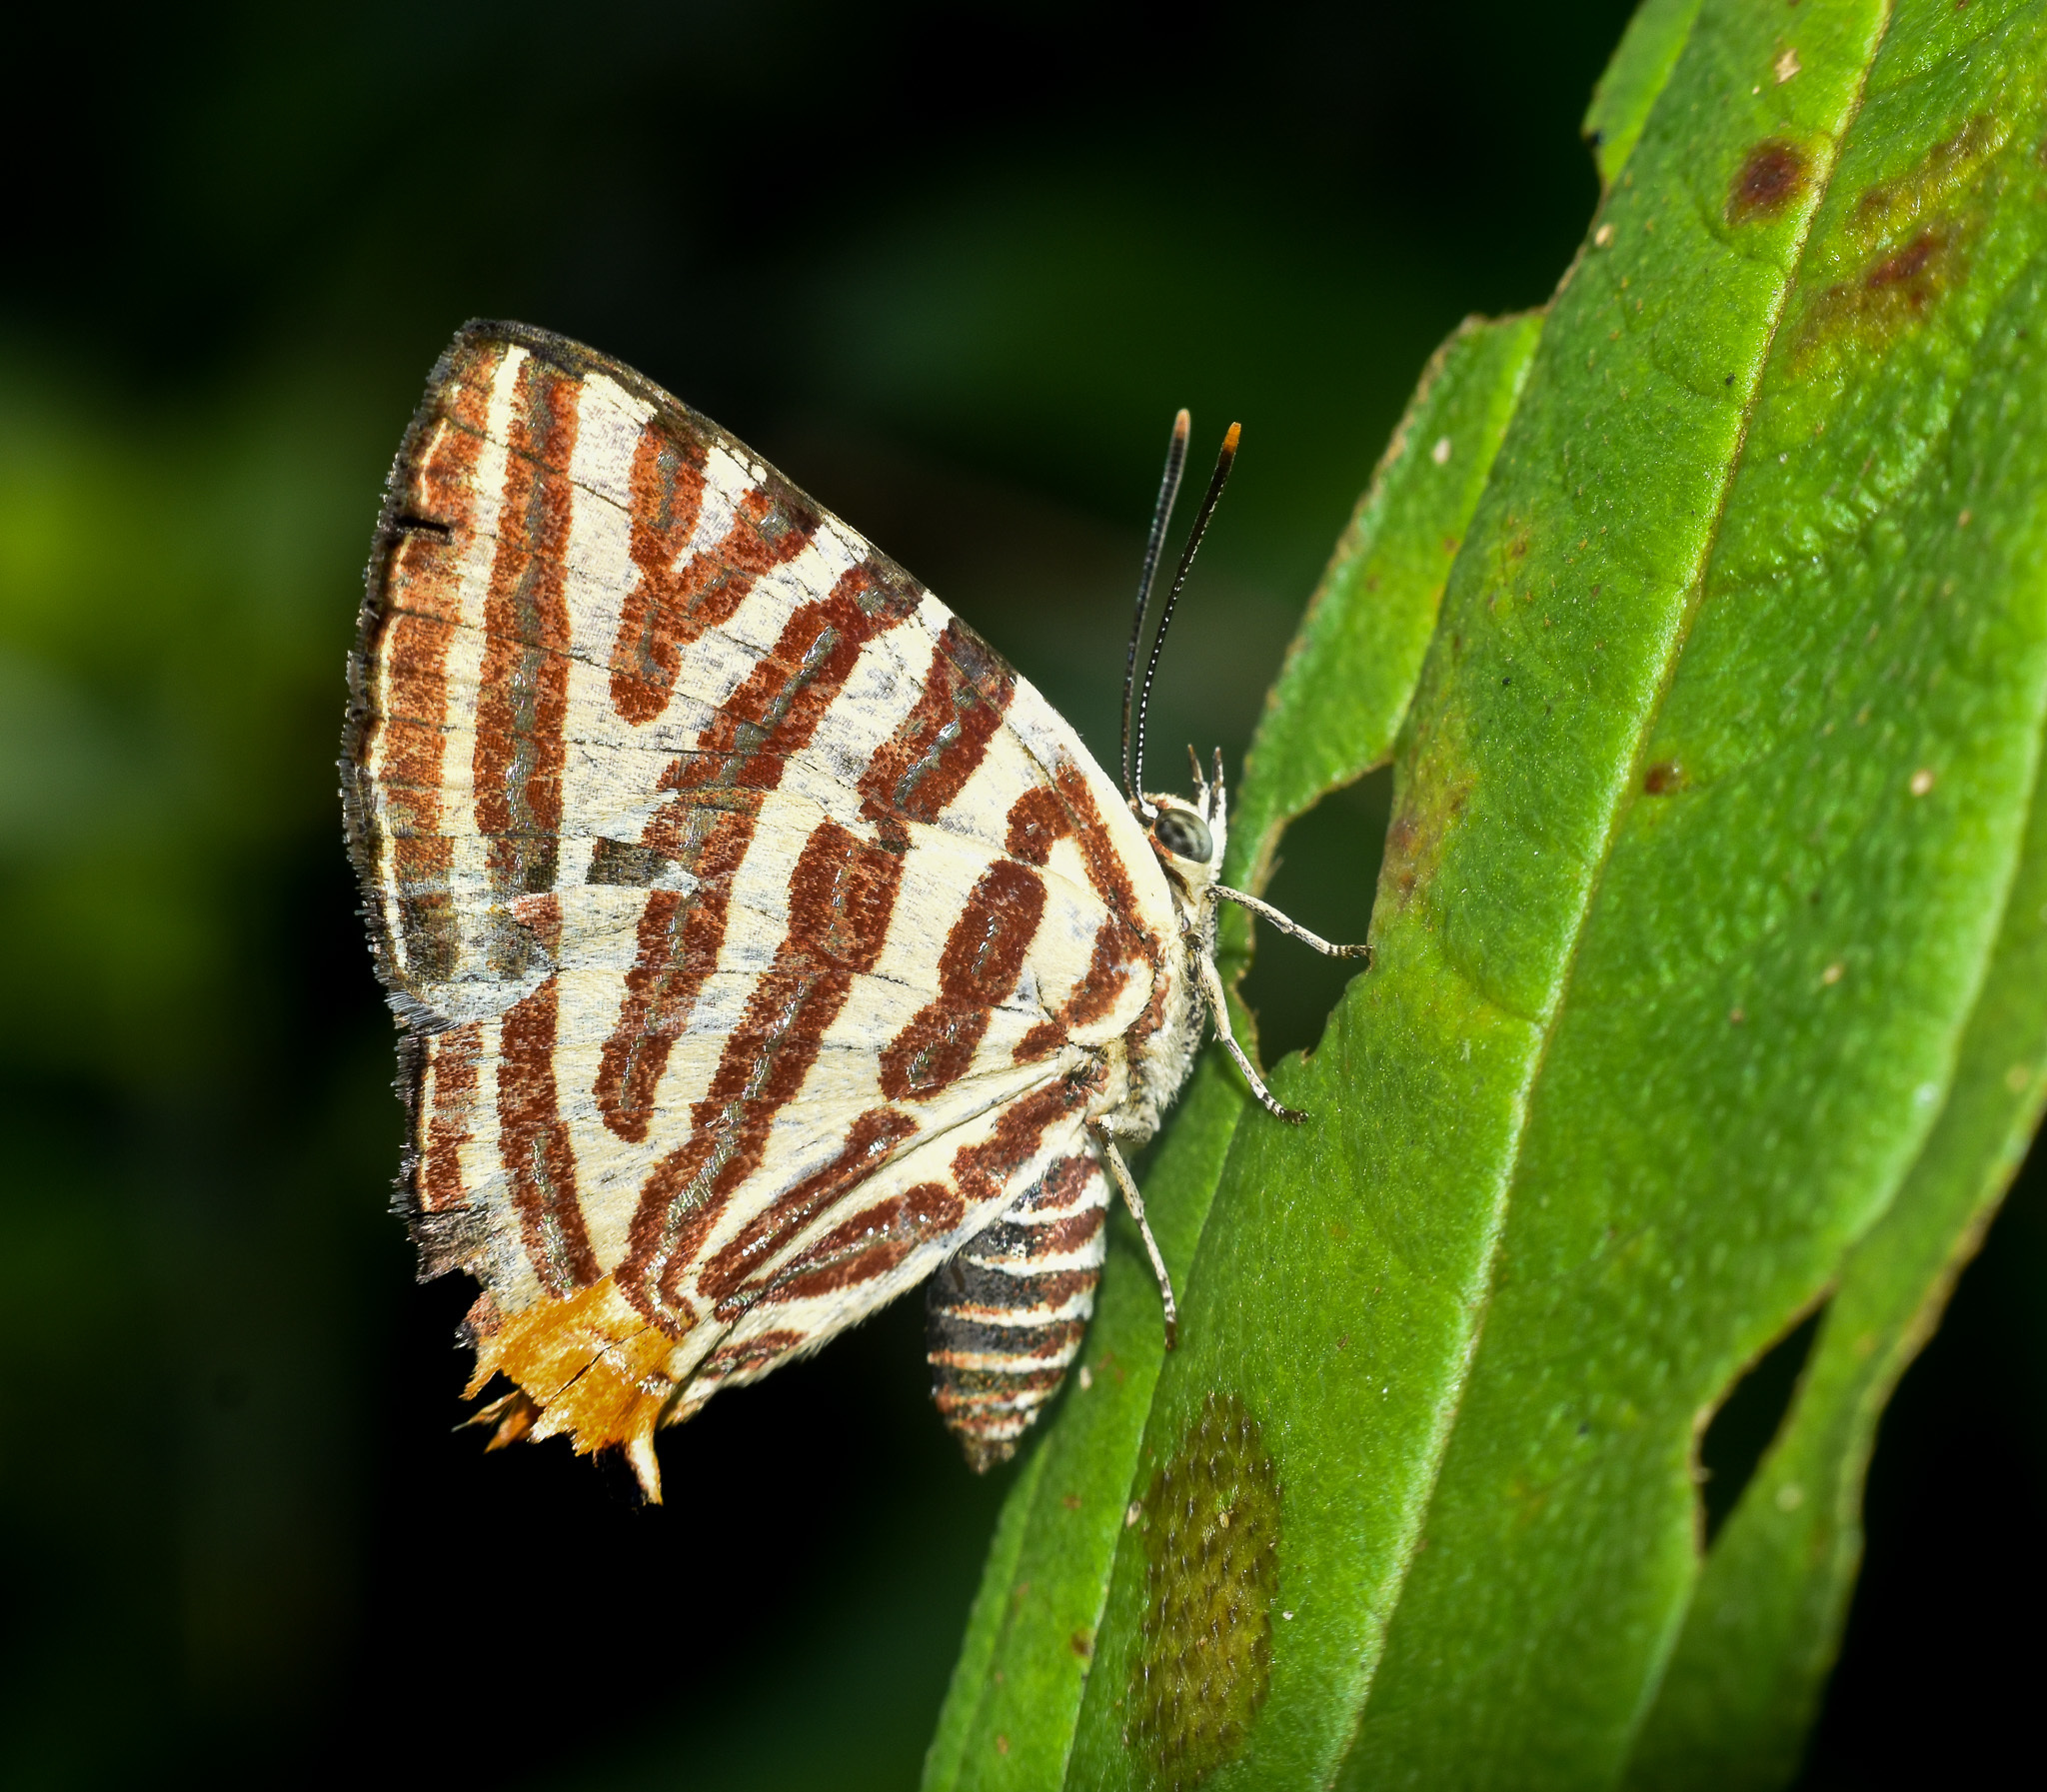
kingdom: Animalia
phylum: Arthropoda
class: Insecta
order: Lepidoptera
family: Lycaenidae
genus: Cigaritis
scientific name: Cigaritis lohita
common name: Long-banded silverline
